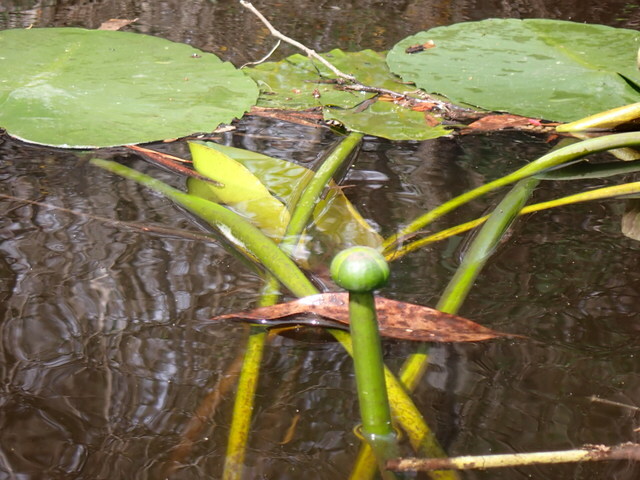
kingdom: Plantae
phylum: Tracheophyta
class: Magnoliopsida
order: Nymphaeales
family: Nymphaeaceae
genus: Nuphar
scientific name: Nuphar advena
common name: Spatter-dock
